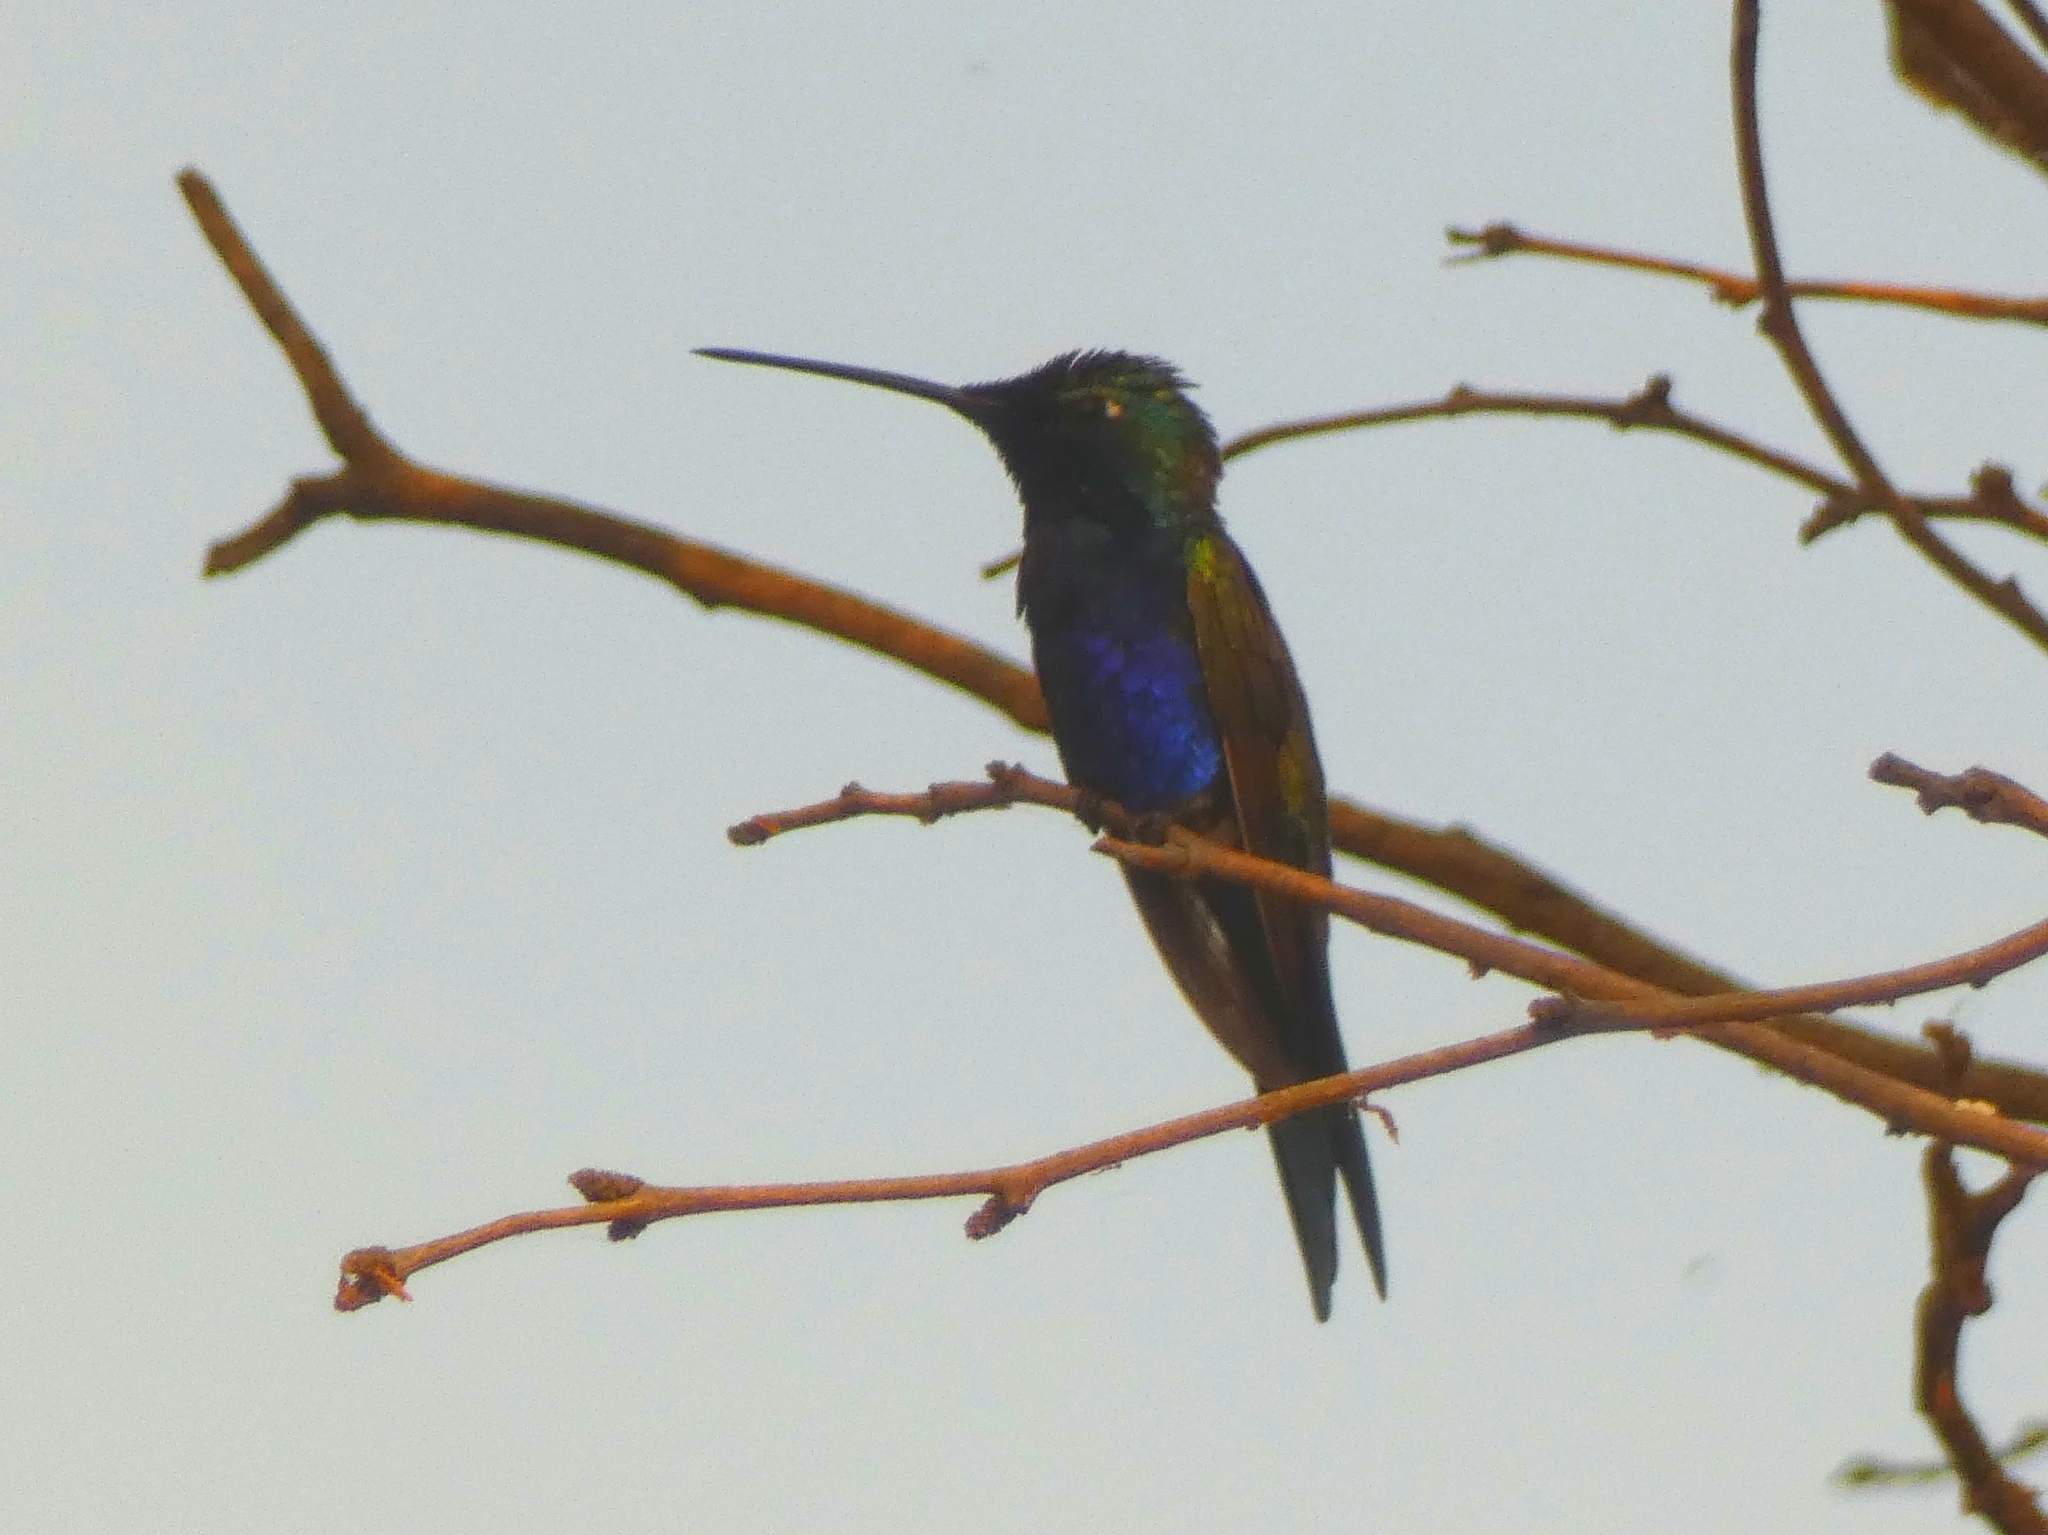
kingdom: Animalia
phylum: Chordata
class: Aves
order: Apodiformes
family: Trochilidae
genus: Heliomaster
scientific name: Heliomaster furcifer
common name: Blue-tufted starthroat
